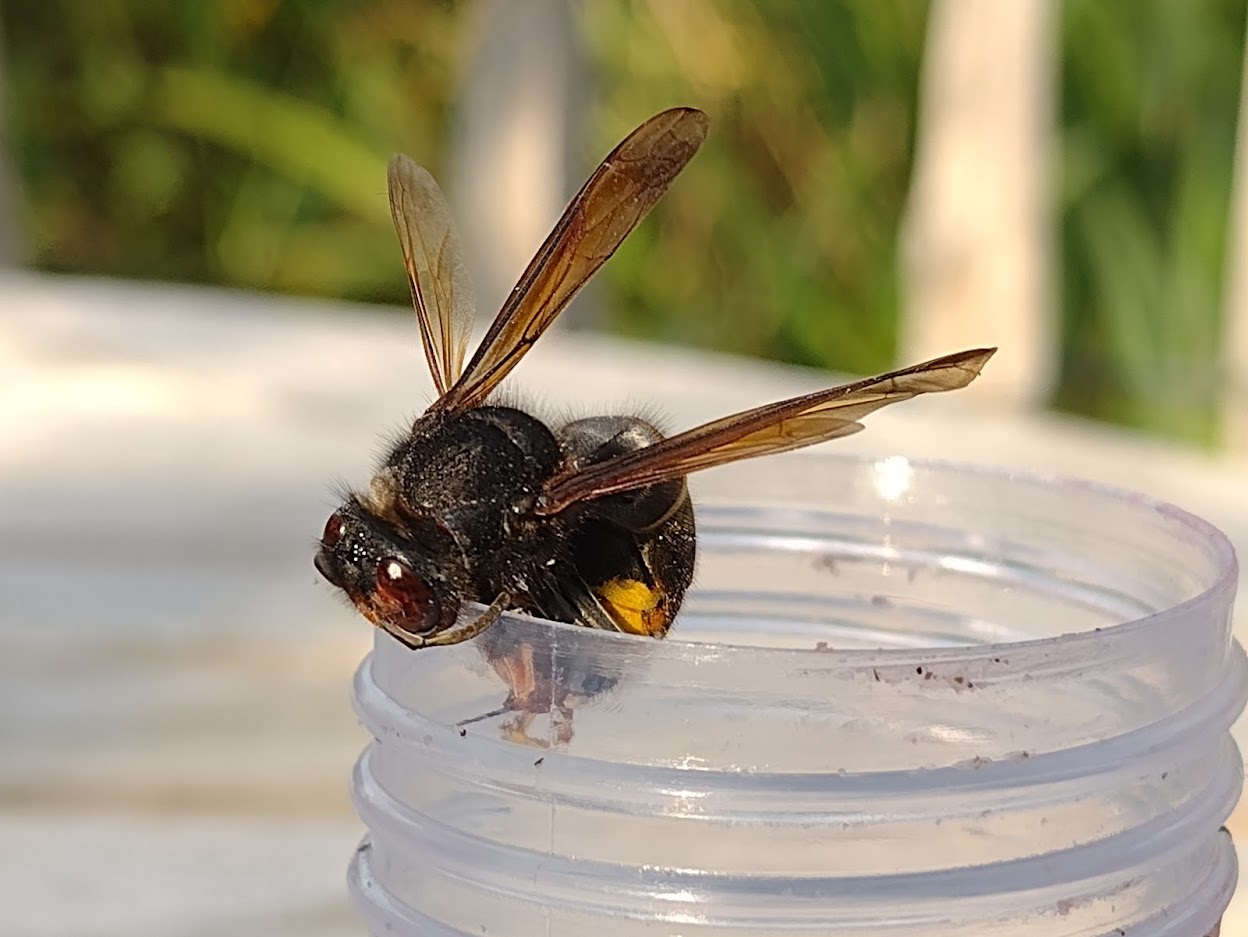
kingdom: Animalia
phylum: Arthropoda
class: Insecta
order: Hymenoptera
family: Vespidae
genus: Vespa
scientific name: Vespa velutina
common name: Asian hornet
